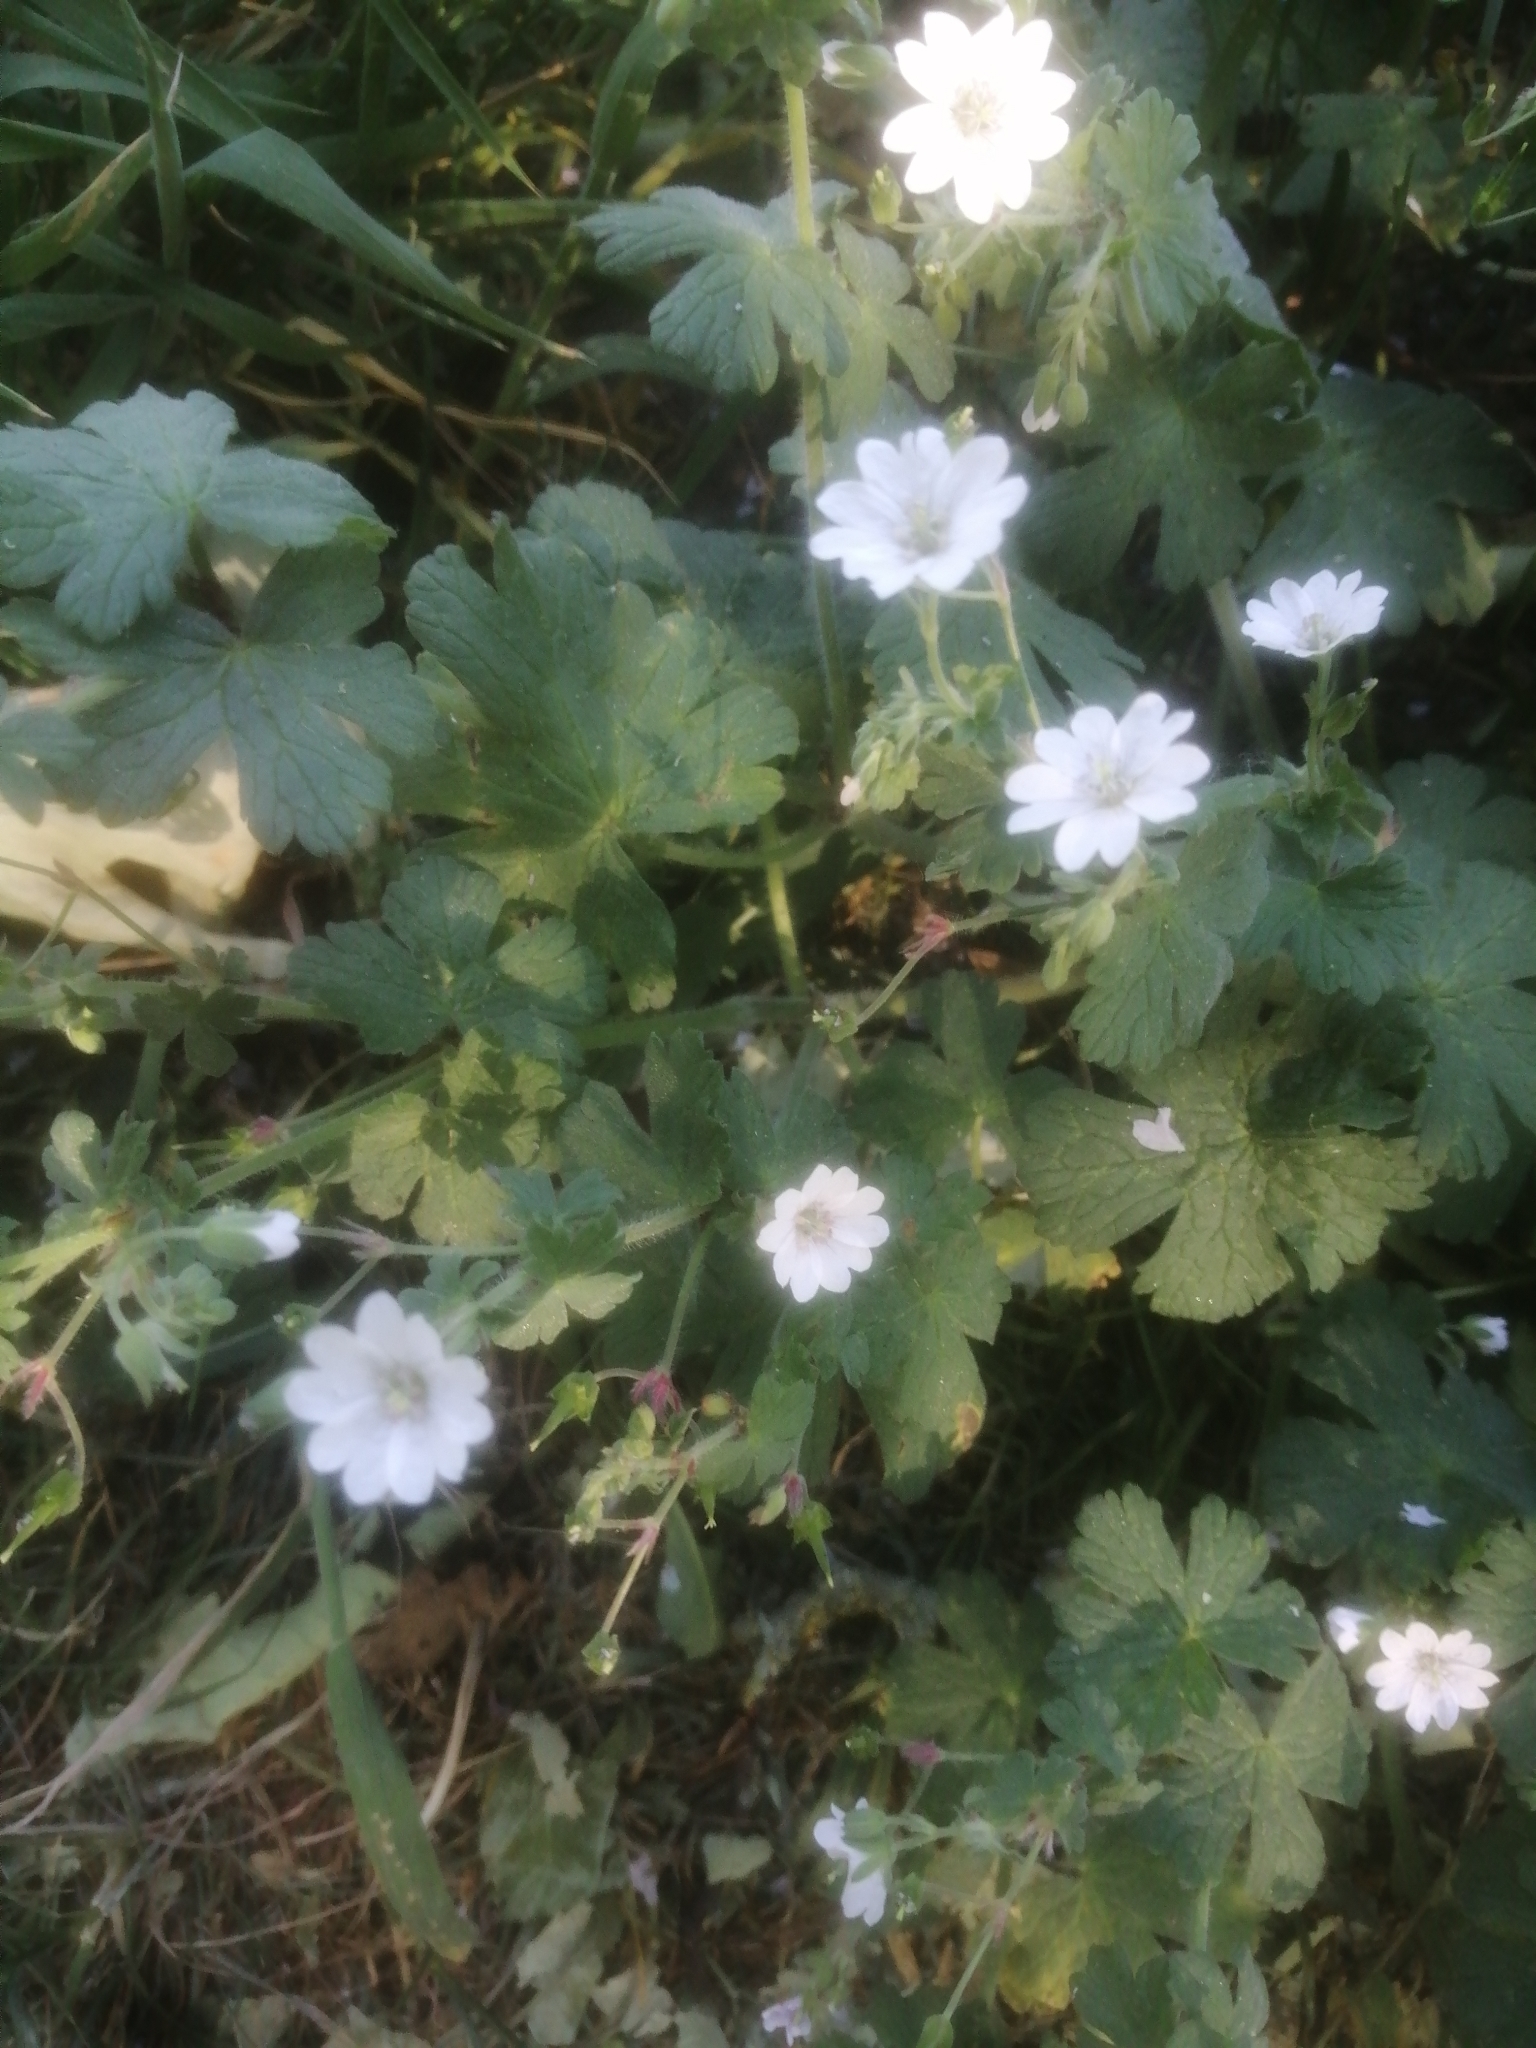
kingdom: Plantae
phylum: Tracheophyta
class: Magnoliopsida
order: Geraniales
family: Geraniaceae
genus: Geranium
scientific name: Geranium pyrenaicum
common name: Hedgerow crane's-bill
